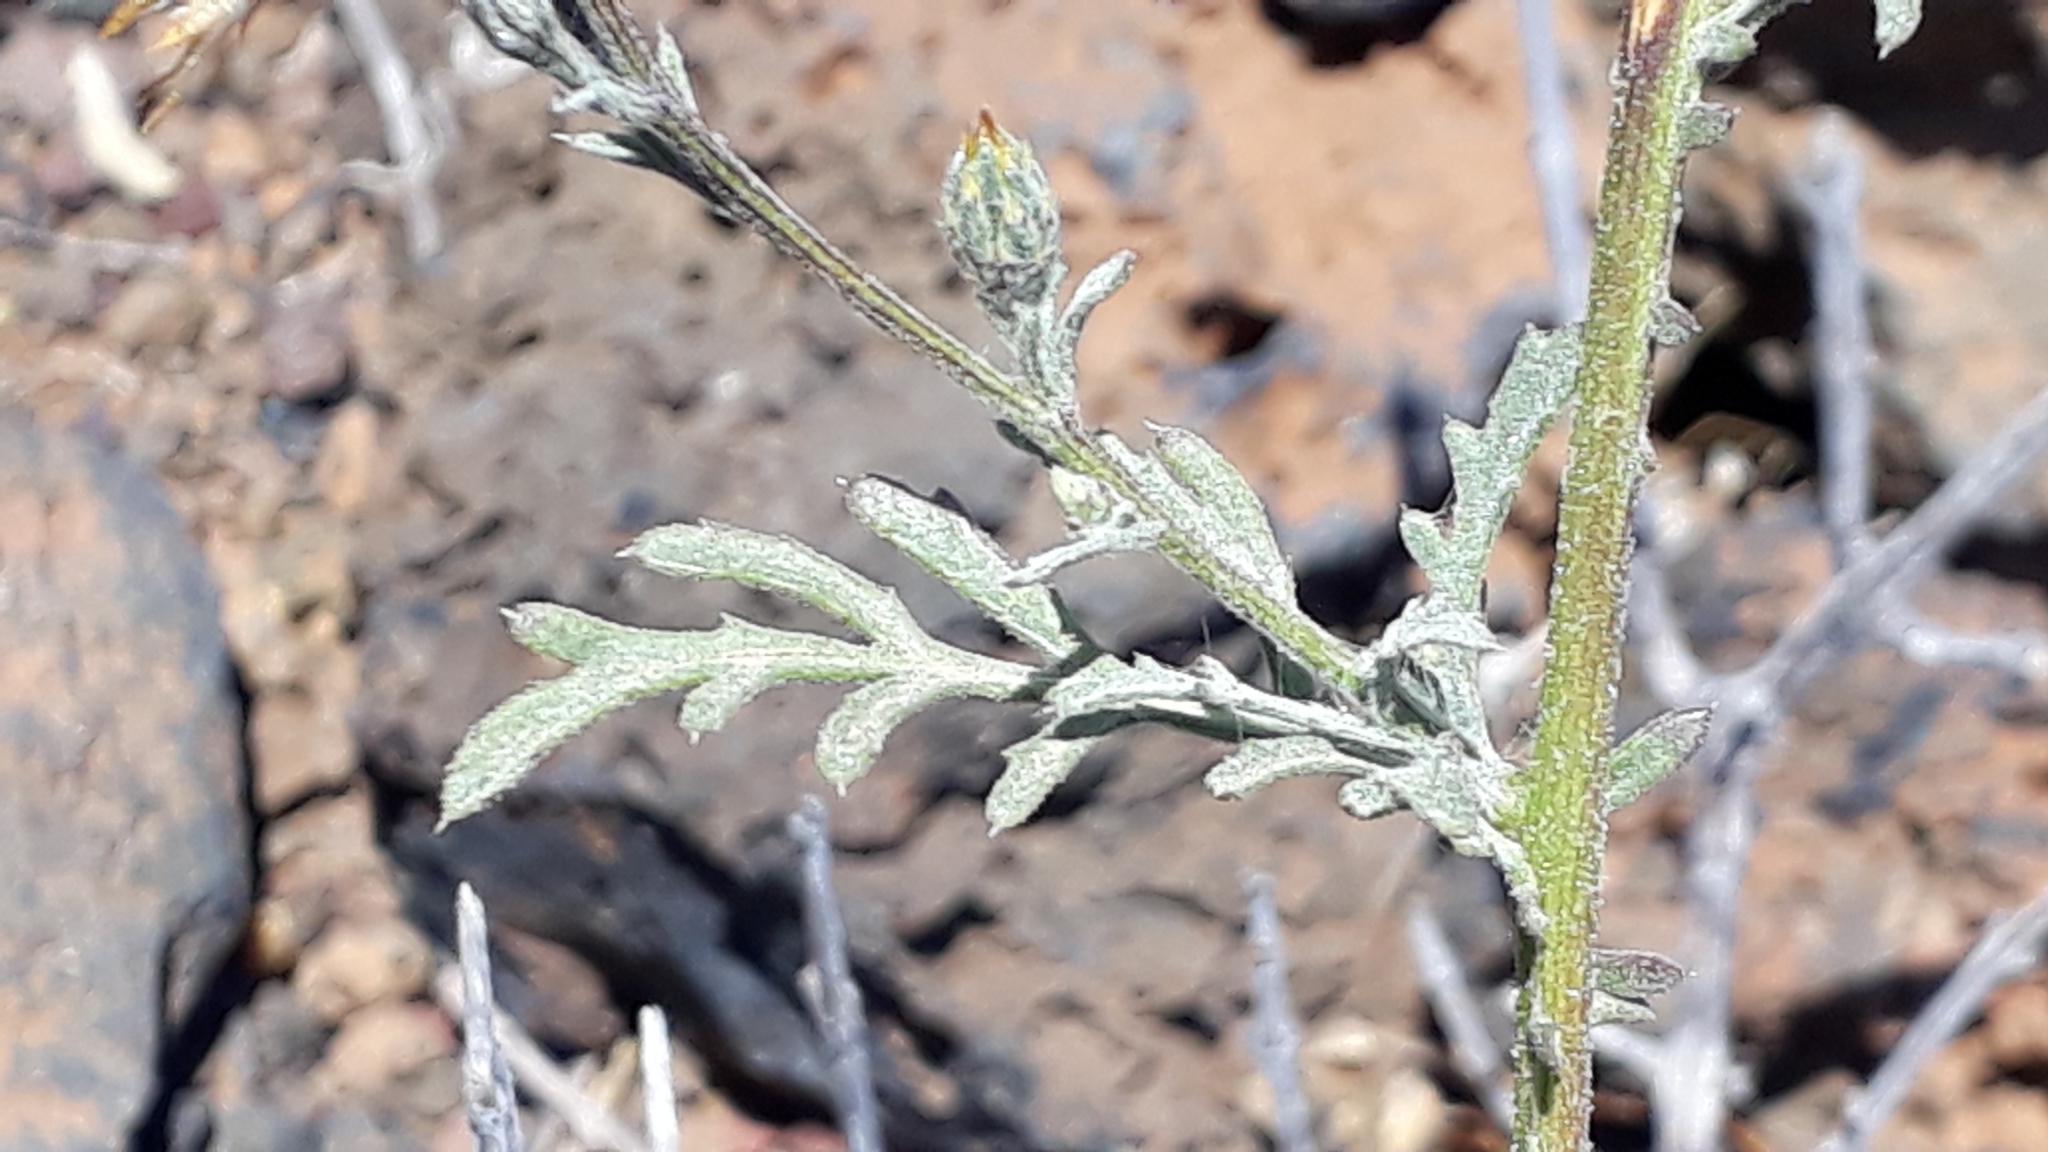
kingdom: Plantae
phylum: Tracheophyta
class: Magnoliopsida
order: Asterales
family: Asteraceae
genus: Volutaria
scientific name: Volutaria canariensis
